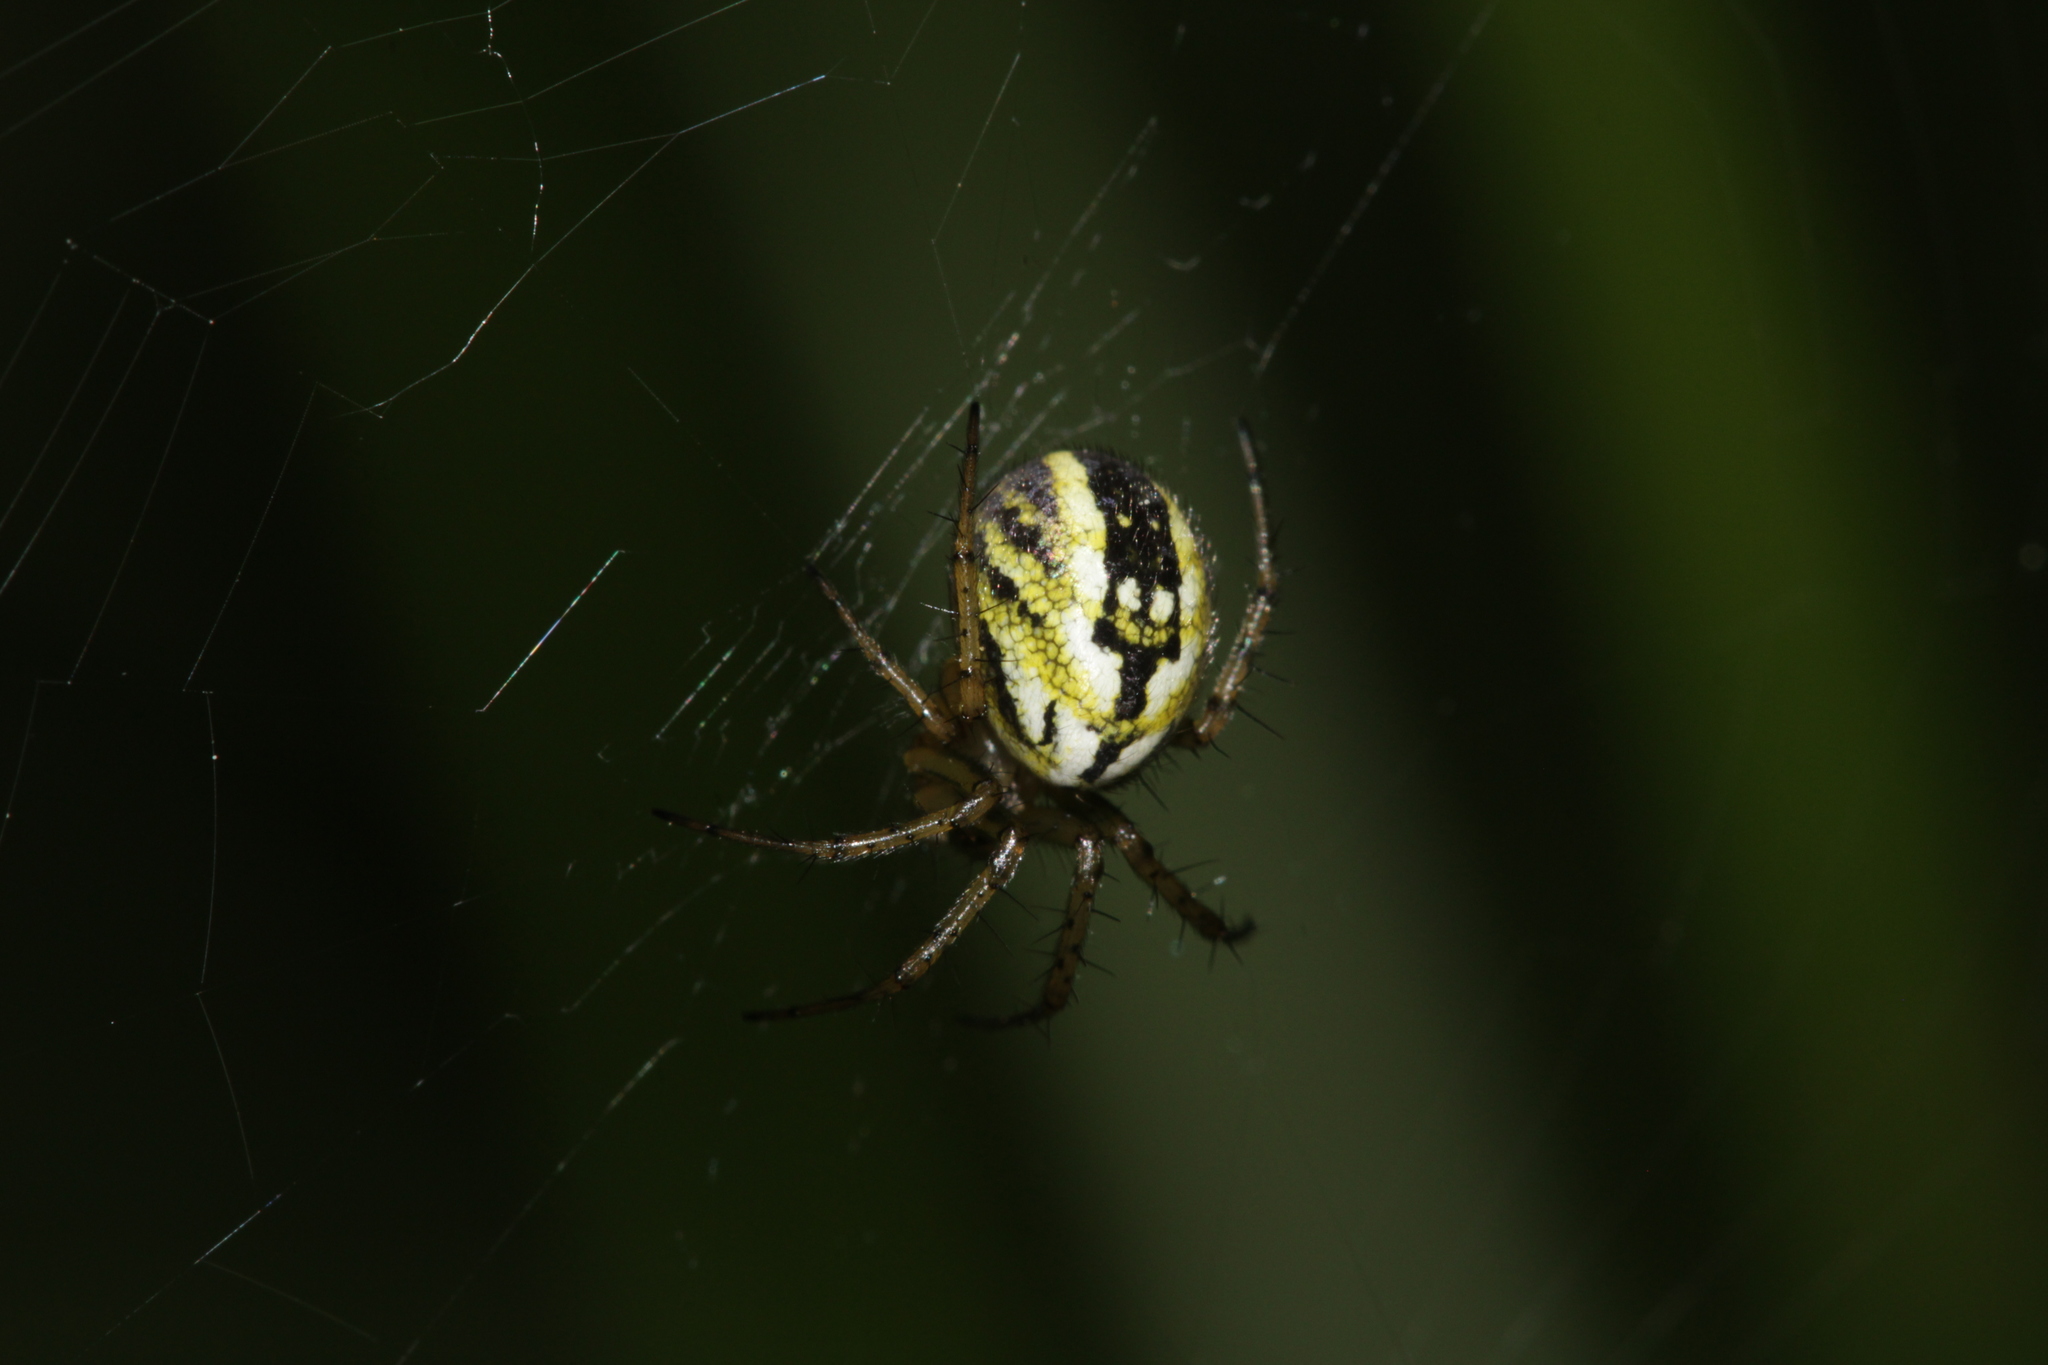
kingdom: Animalia
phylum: Arthropoda
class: Arachnida
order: Araneae
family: Araneidae
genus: Mangora
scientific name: Mangora acalypha
